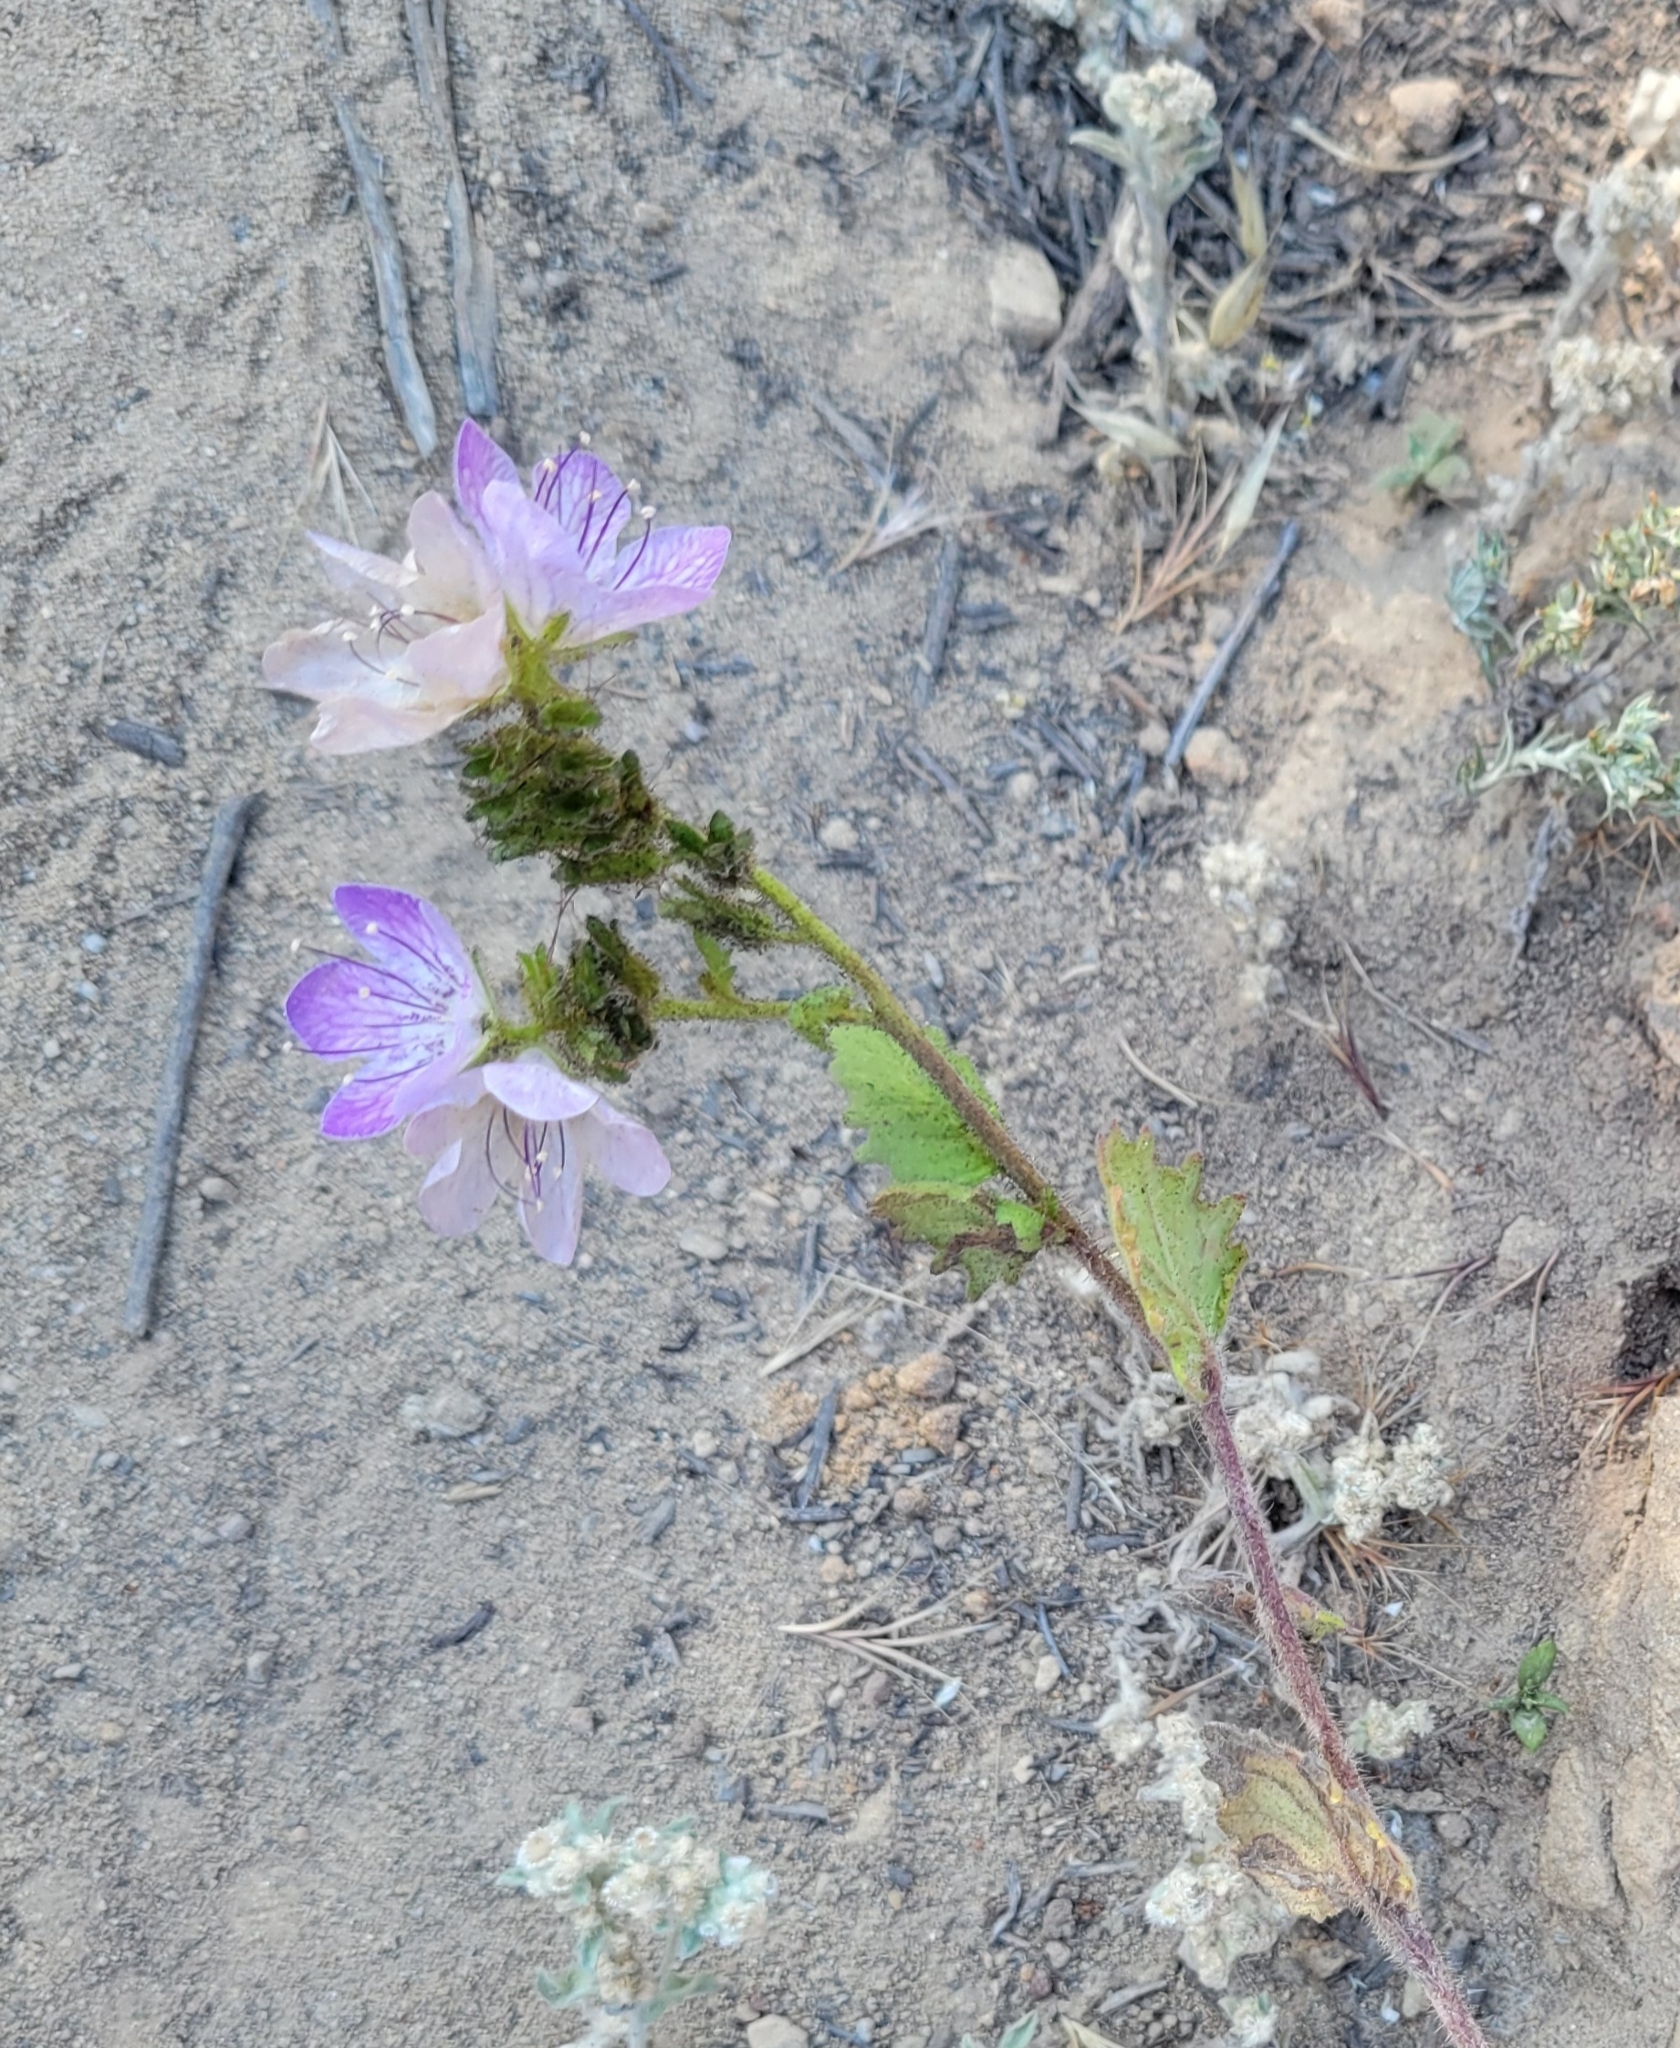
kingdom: Plantae
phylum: Tracheophyta
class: Magnoliopsida
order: Boraginales
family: Hydrophyllaceae
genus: Phacelia
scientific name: Phacelia grandiflora
